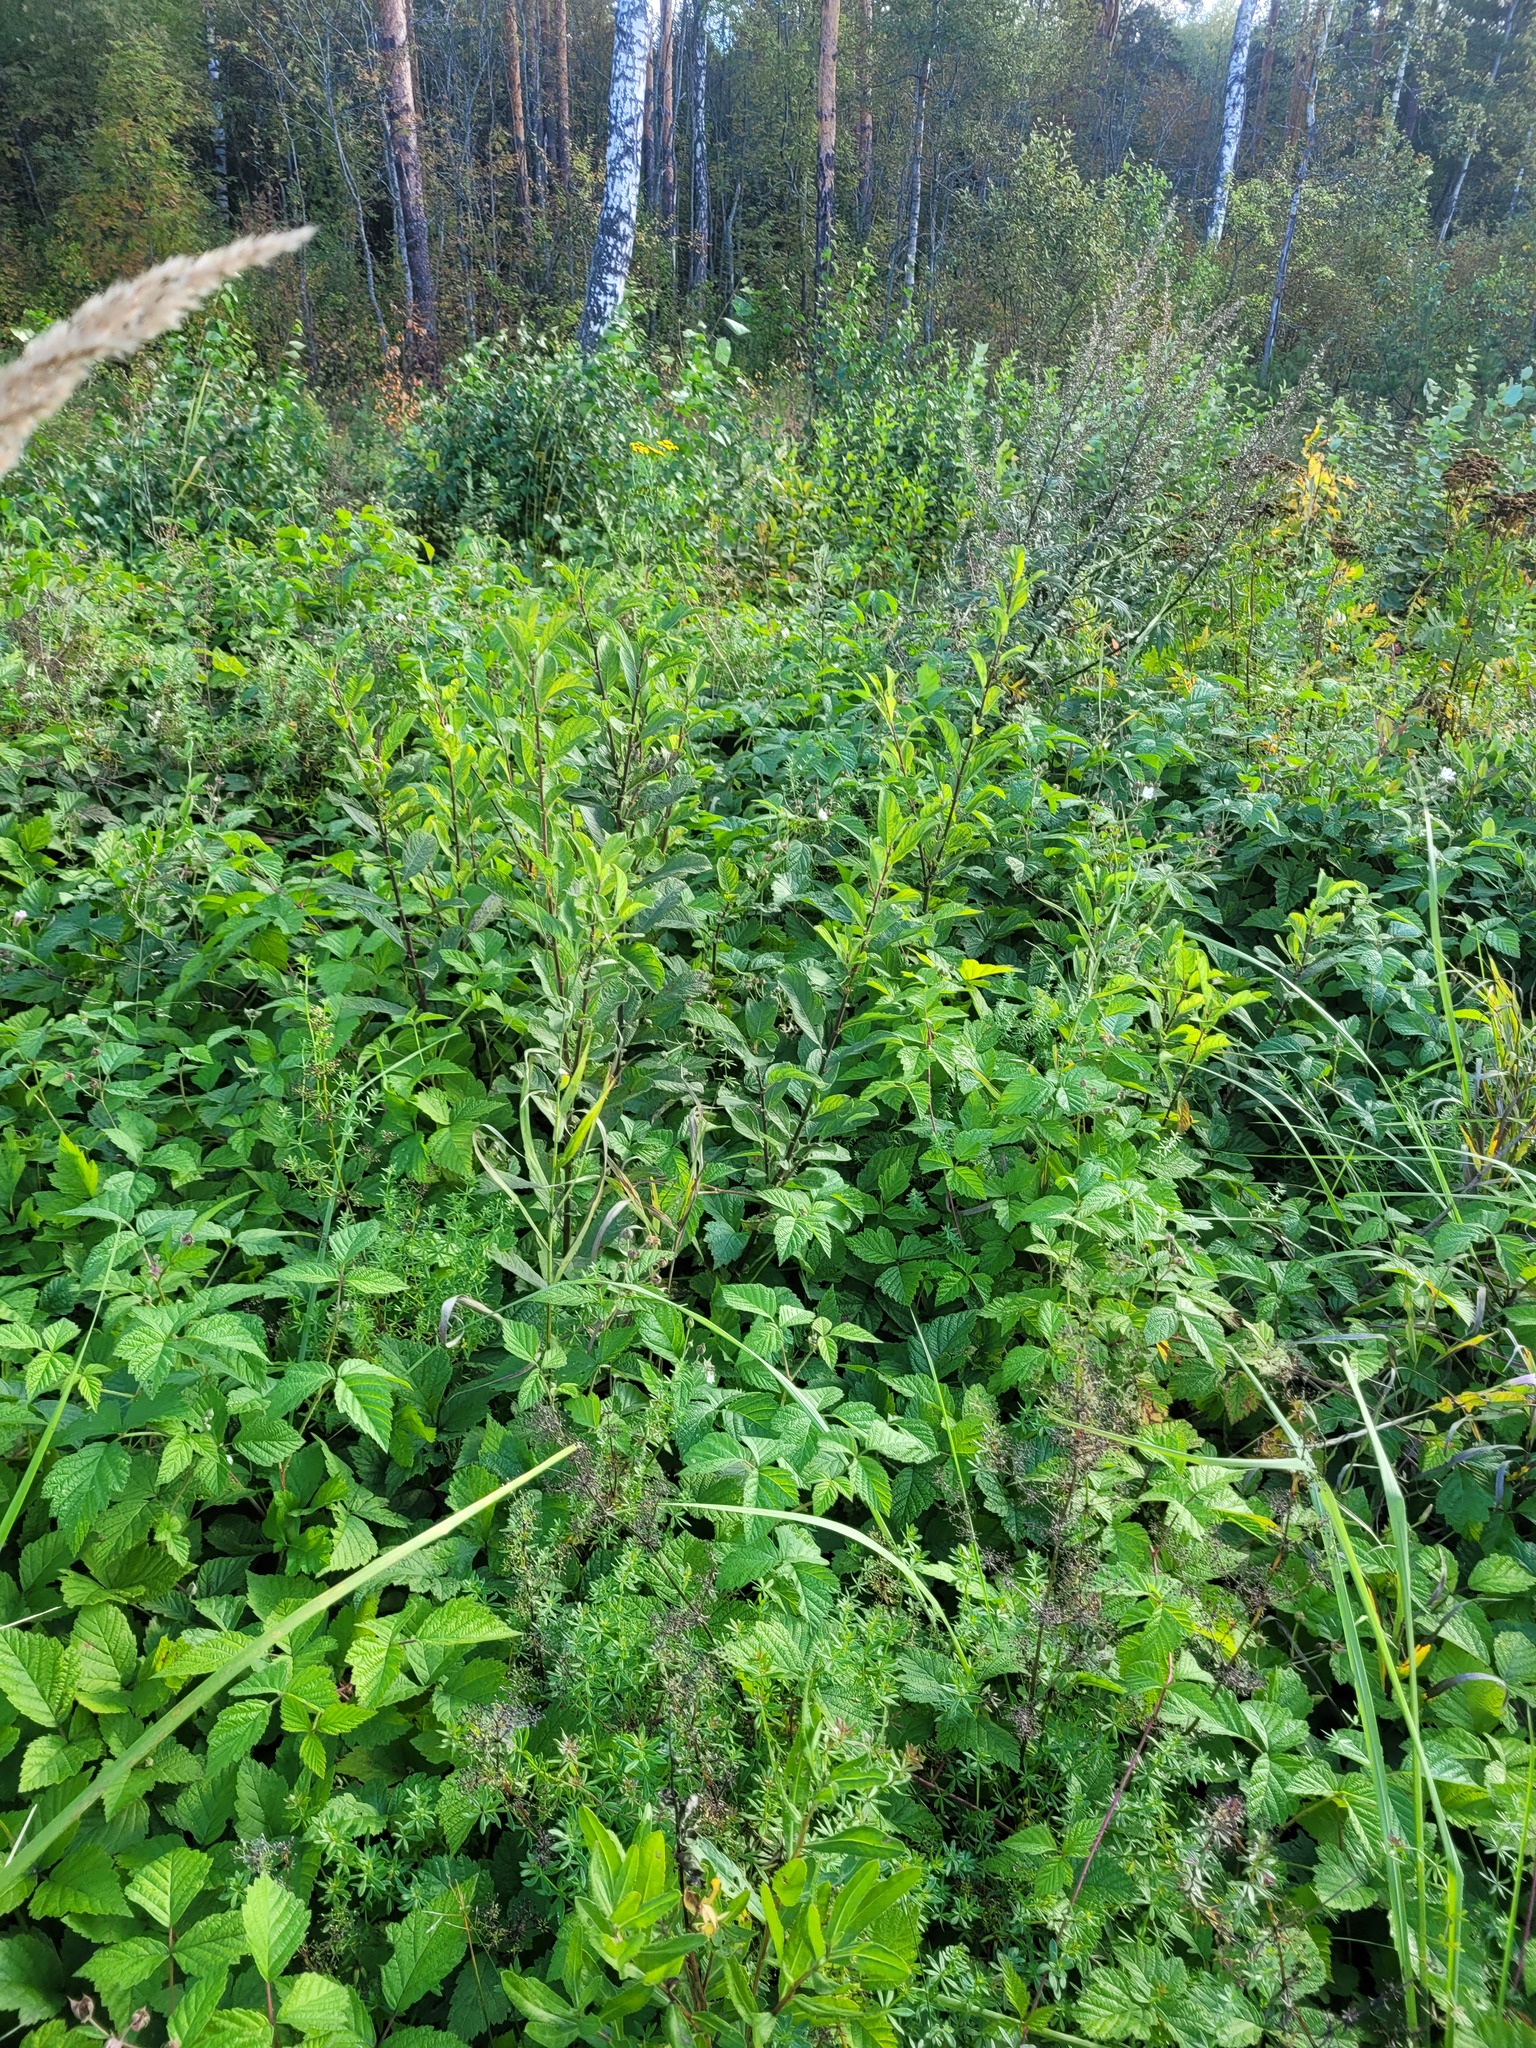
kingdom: Plantae
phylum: Tracheophyta
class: Magnoliopsida
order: Malpighiales
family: Salicaceae
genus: Salix
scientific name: Salix aurita
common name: Eared willow
